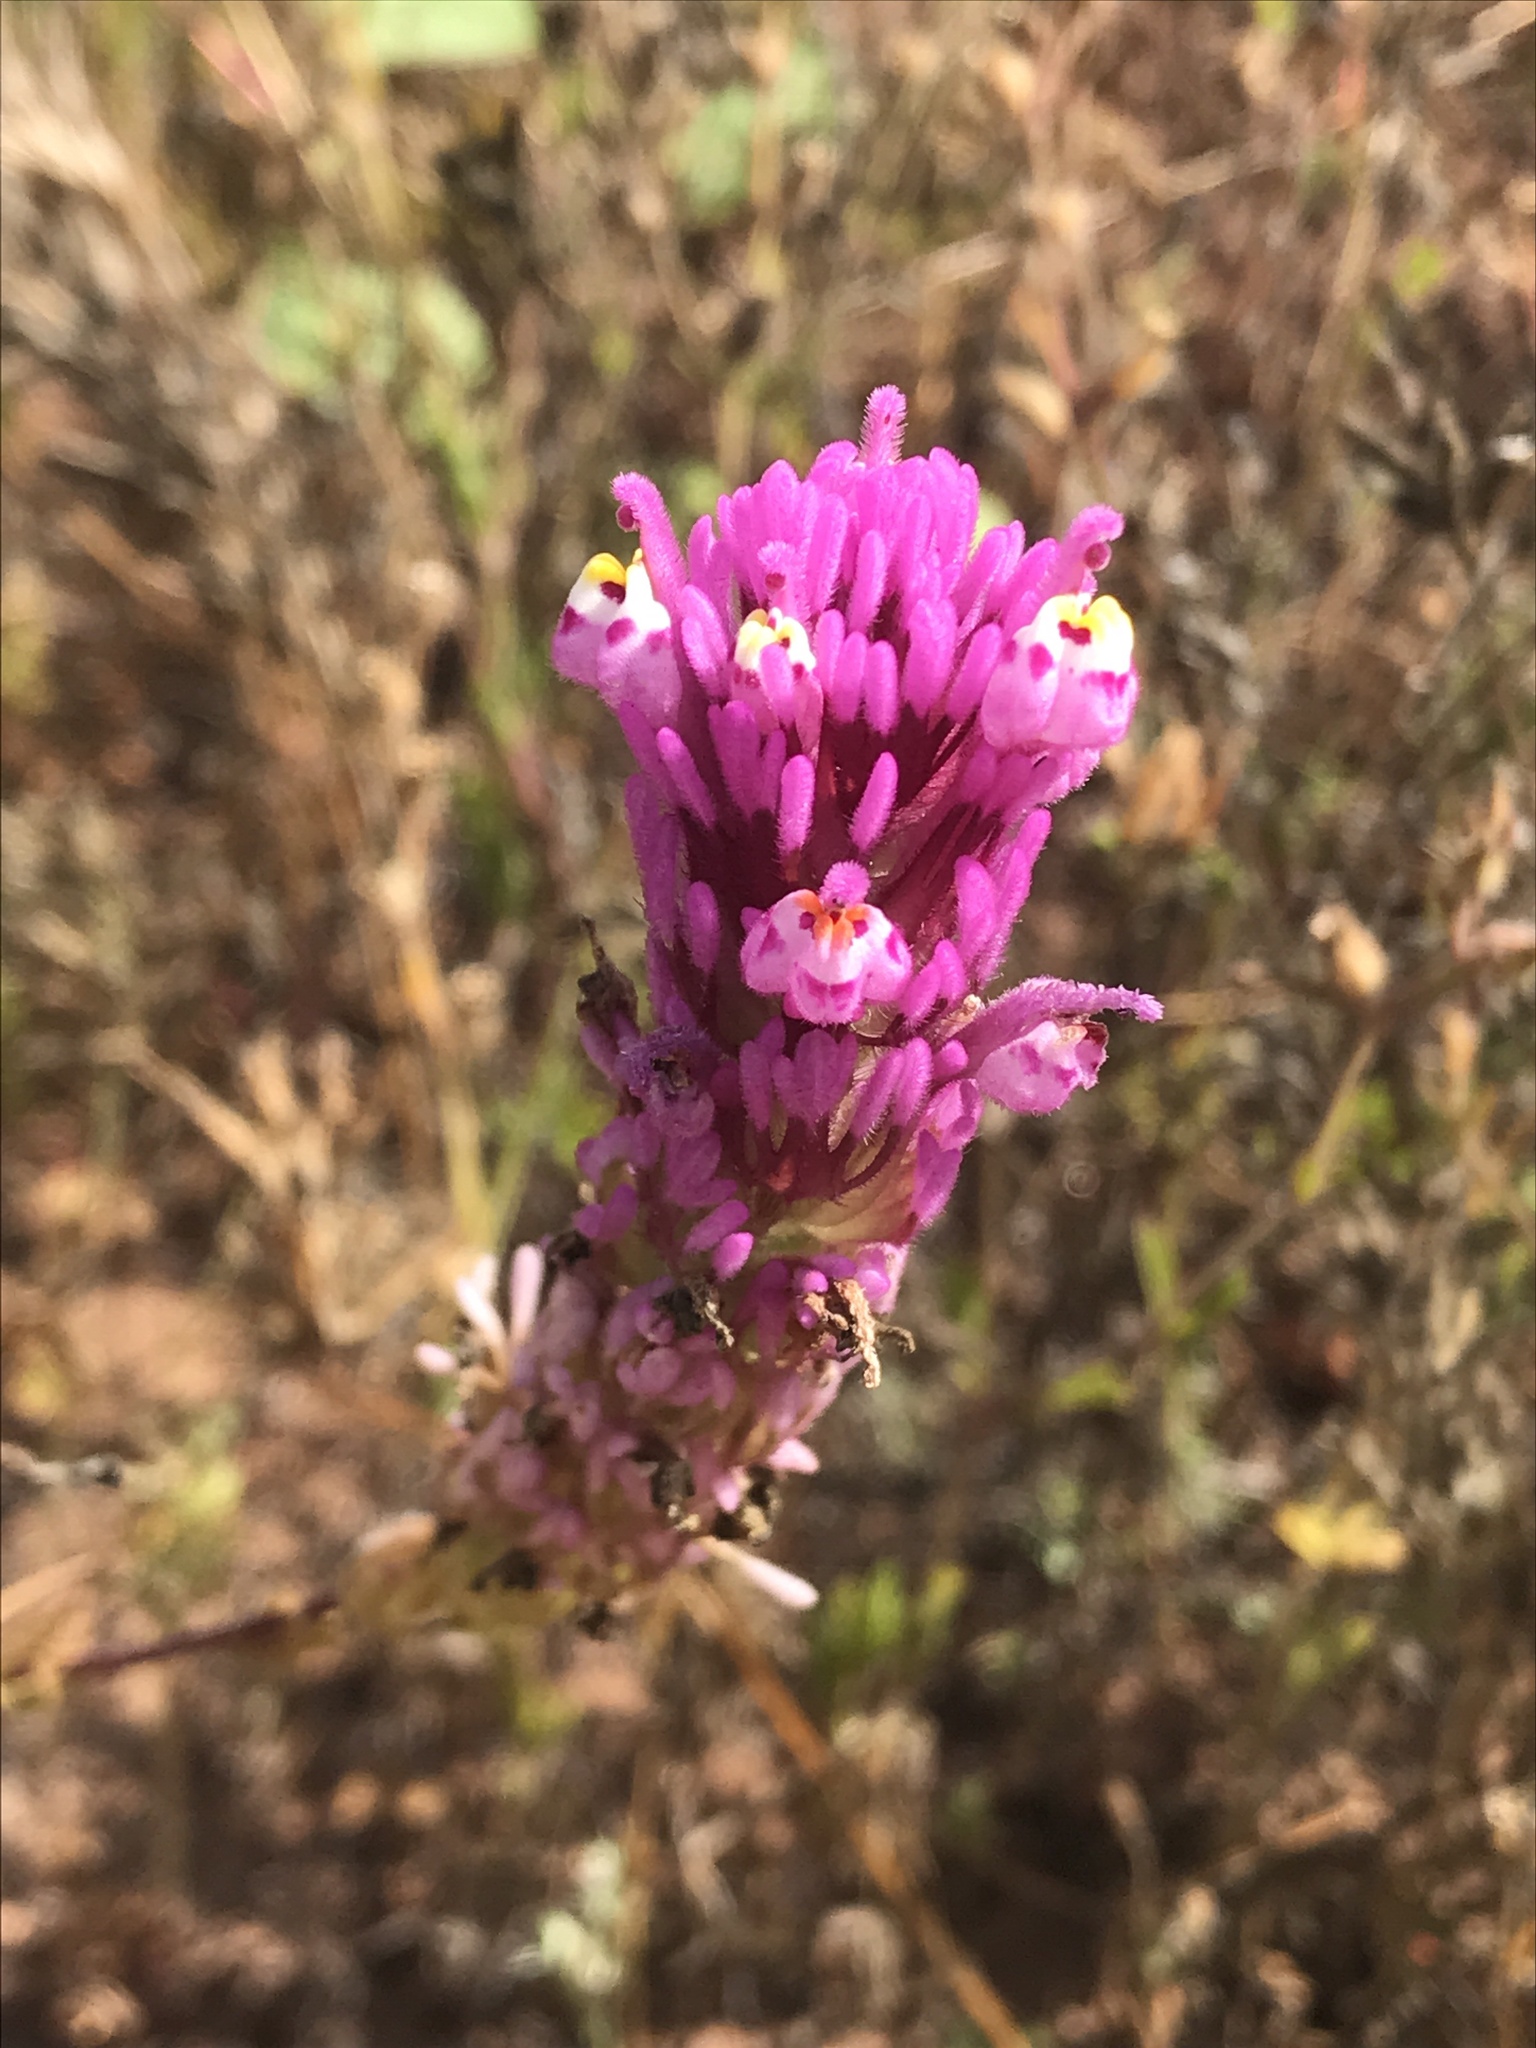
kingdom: Plantae
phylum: Tracheophyta
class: Magnoliopsida
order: Lamiales
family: Orobanchaceae
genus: Castilleja
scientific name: Castilleja exserta
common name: Purple owl-clover
